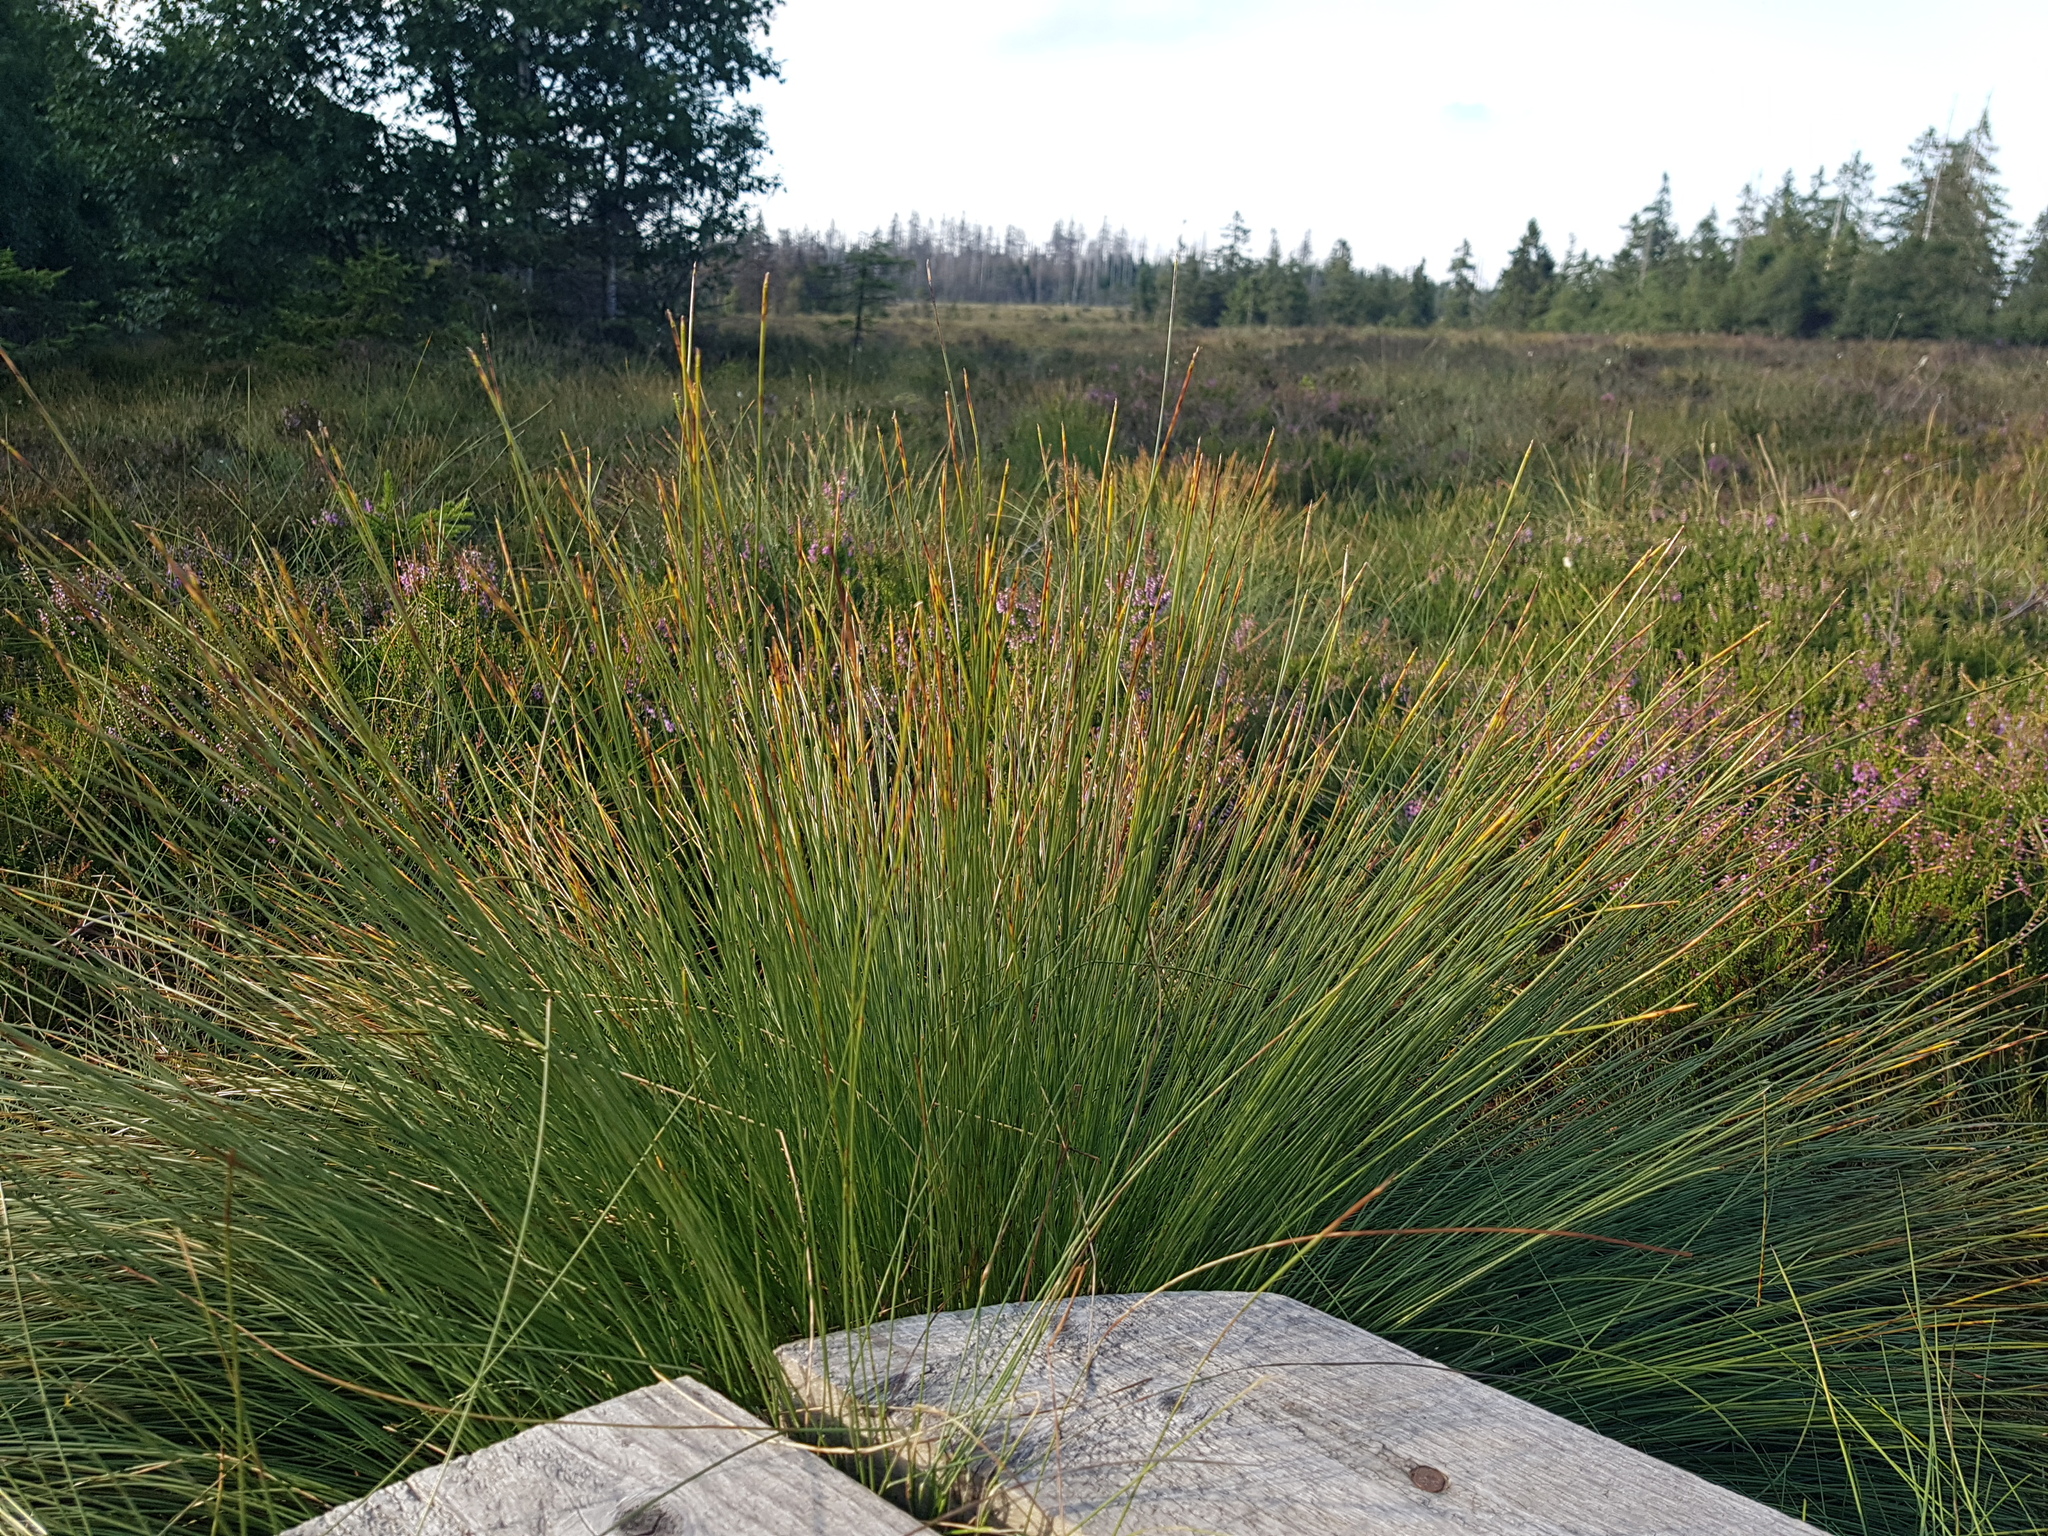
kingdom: Plantae
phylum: Tracheophyta
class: Liliopsida
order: Poales
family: Cyperaceae
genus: Trichophorum
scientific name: Trichophorum cespitosum
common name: Cespitose bulrush
